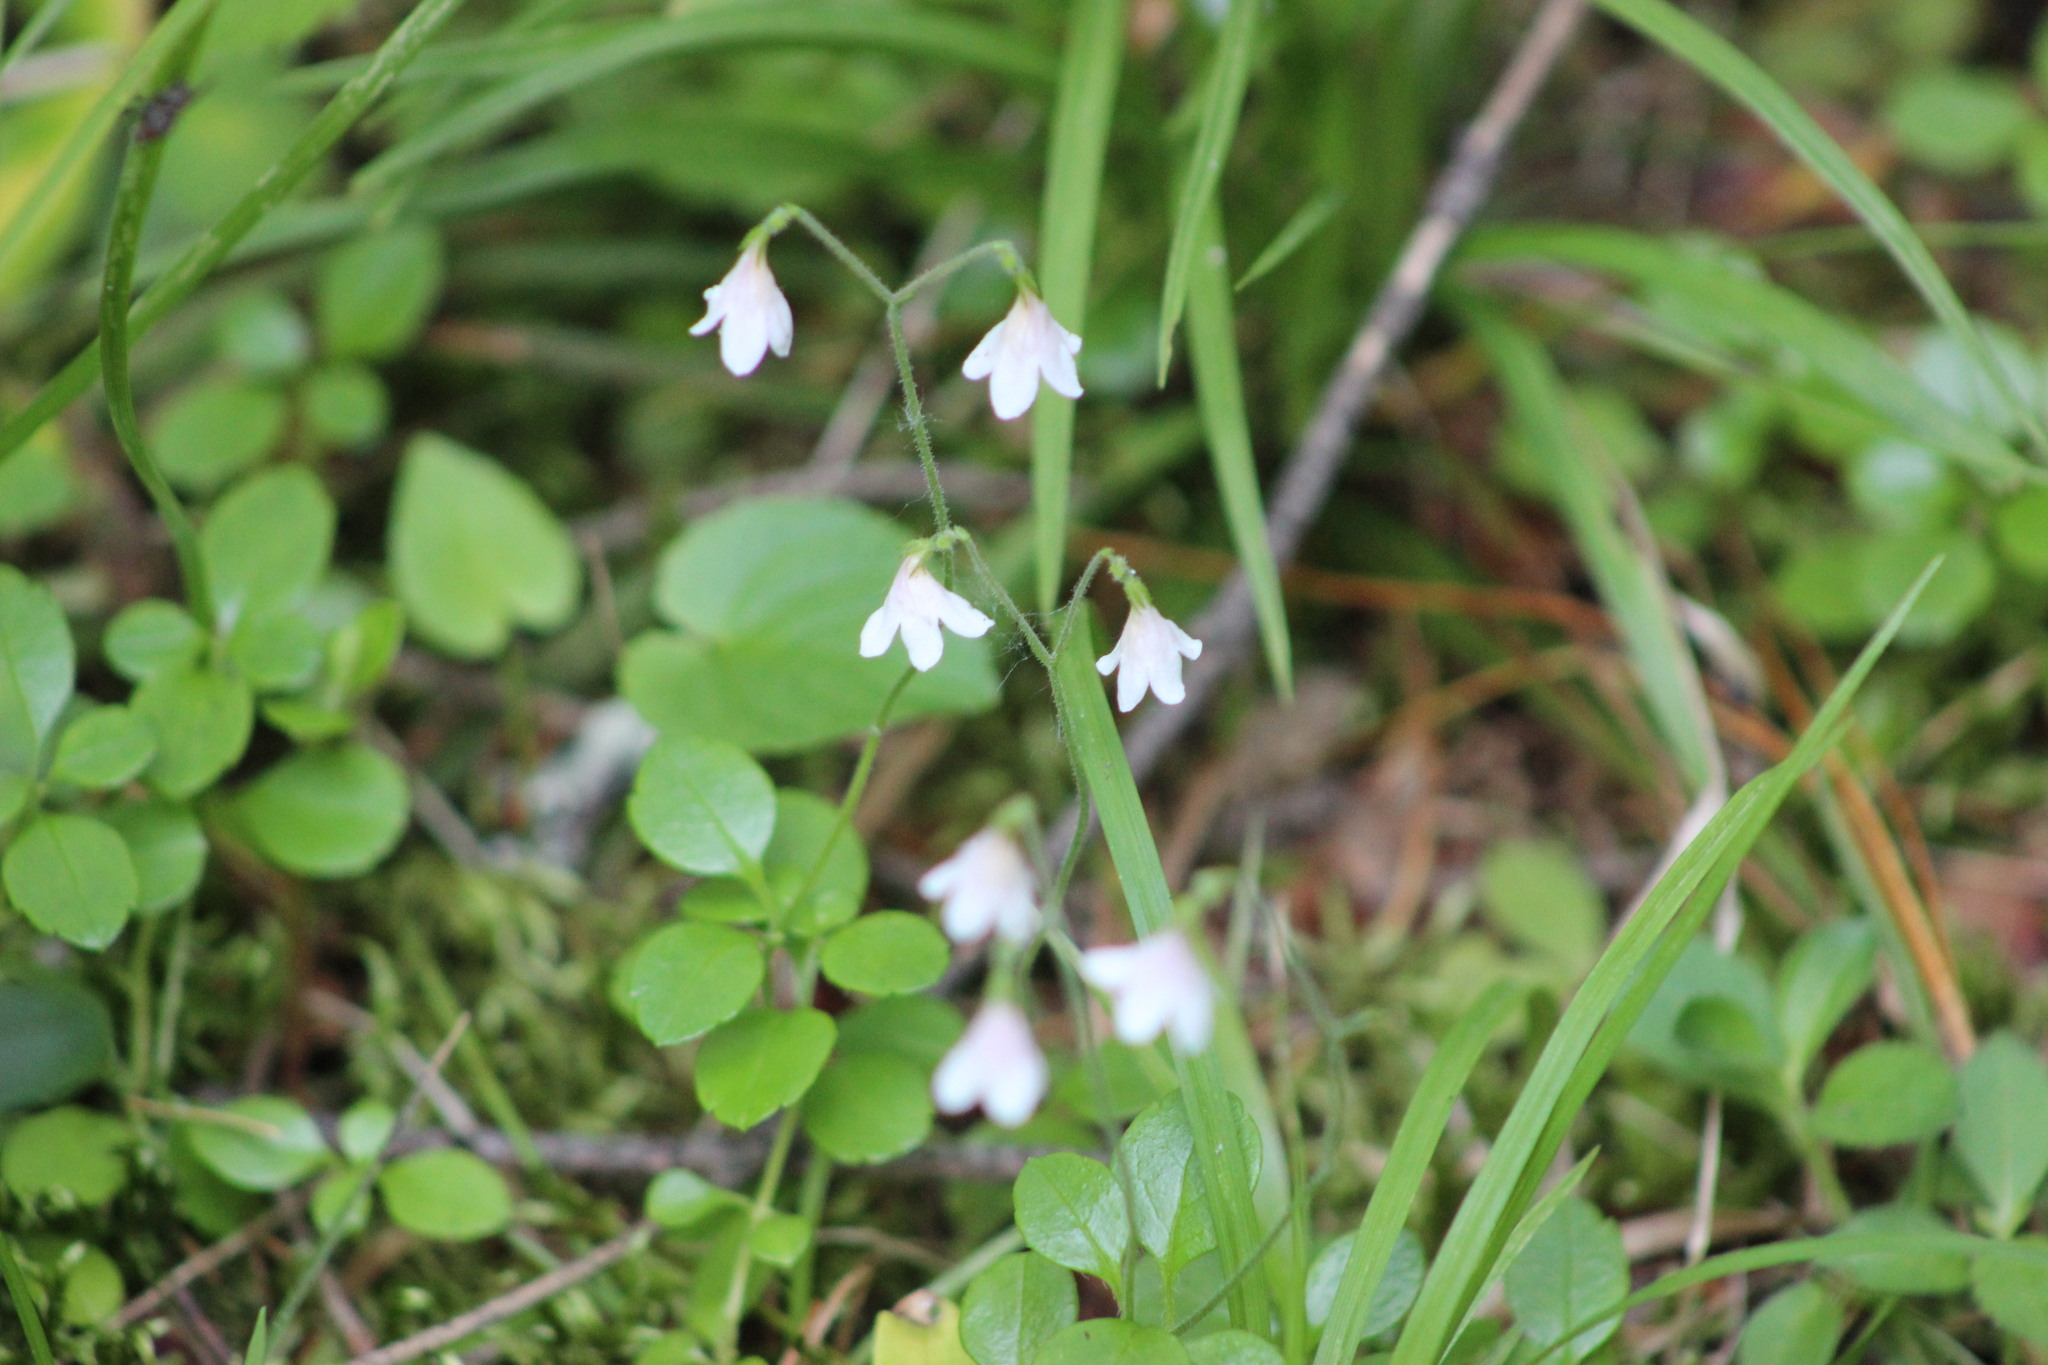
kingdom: Plantae
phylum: Tracheophyta
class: Magnoliopsida
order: Dipsacales
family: Caprifoliaceae
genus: Linnaea
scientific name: Linnaea borealis
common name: Twinflower
